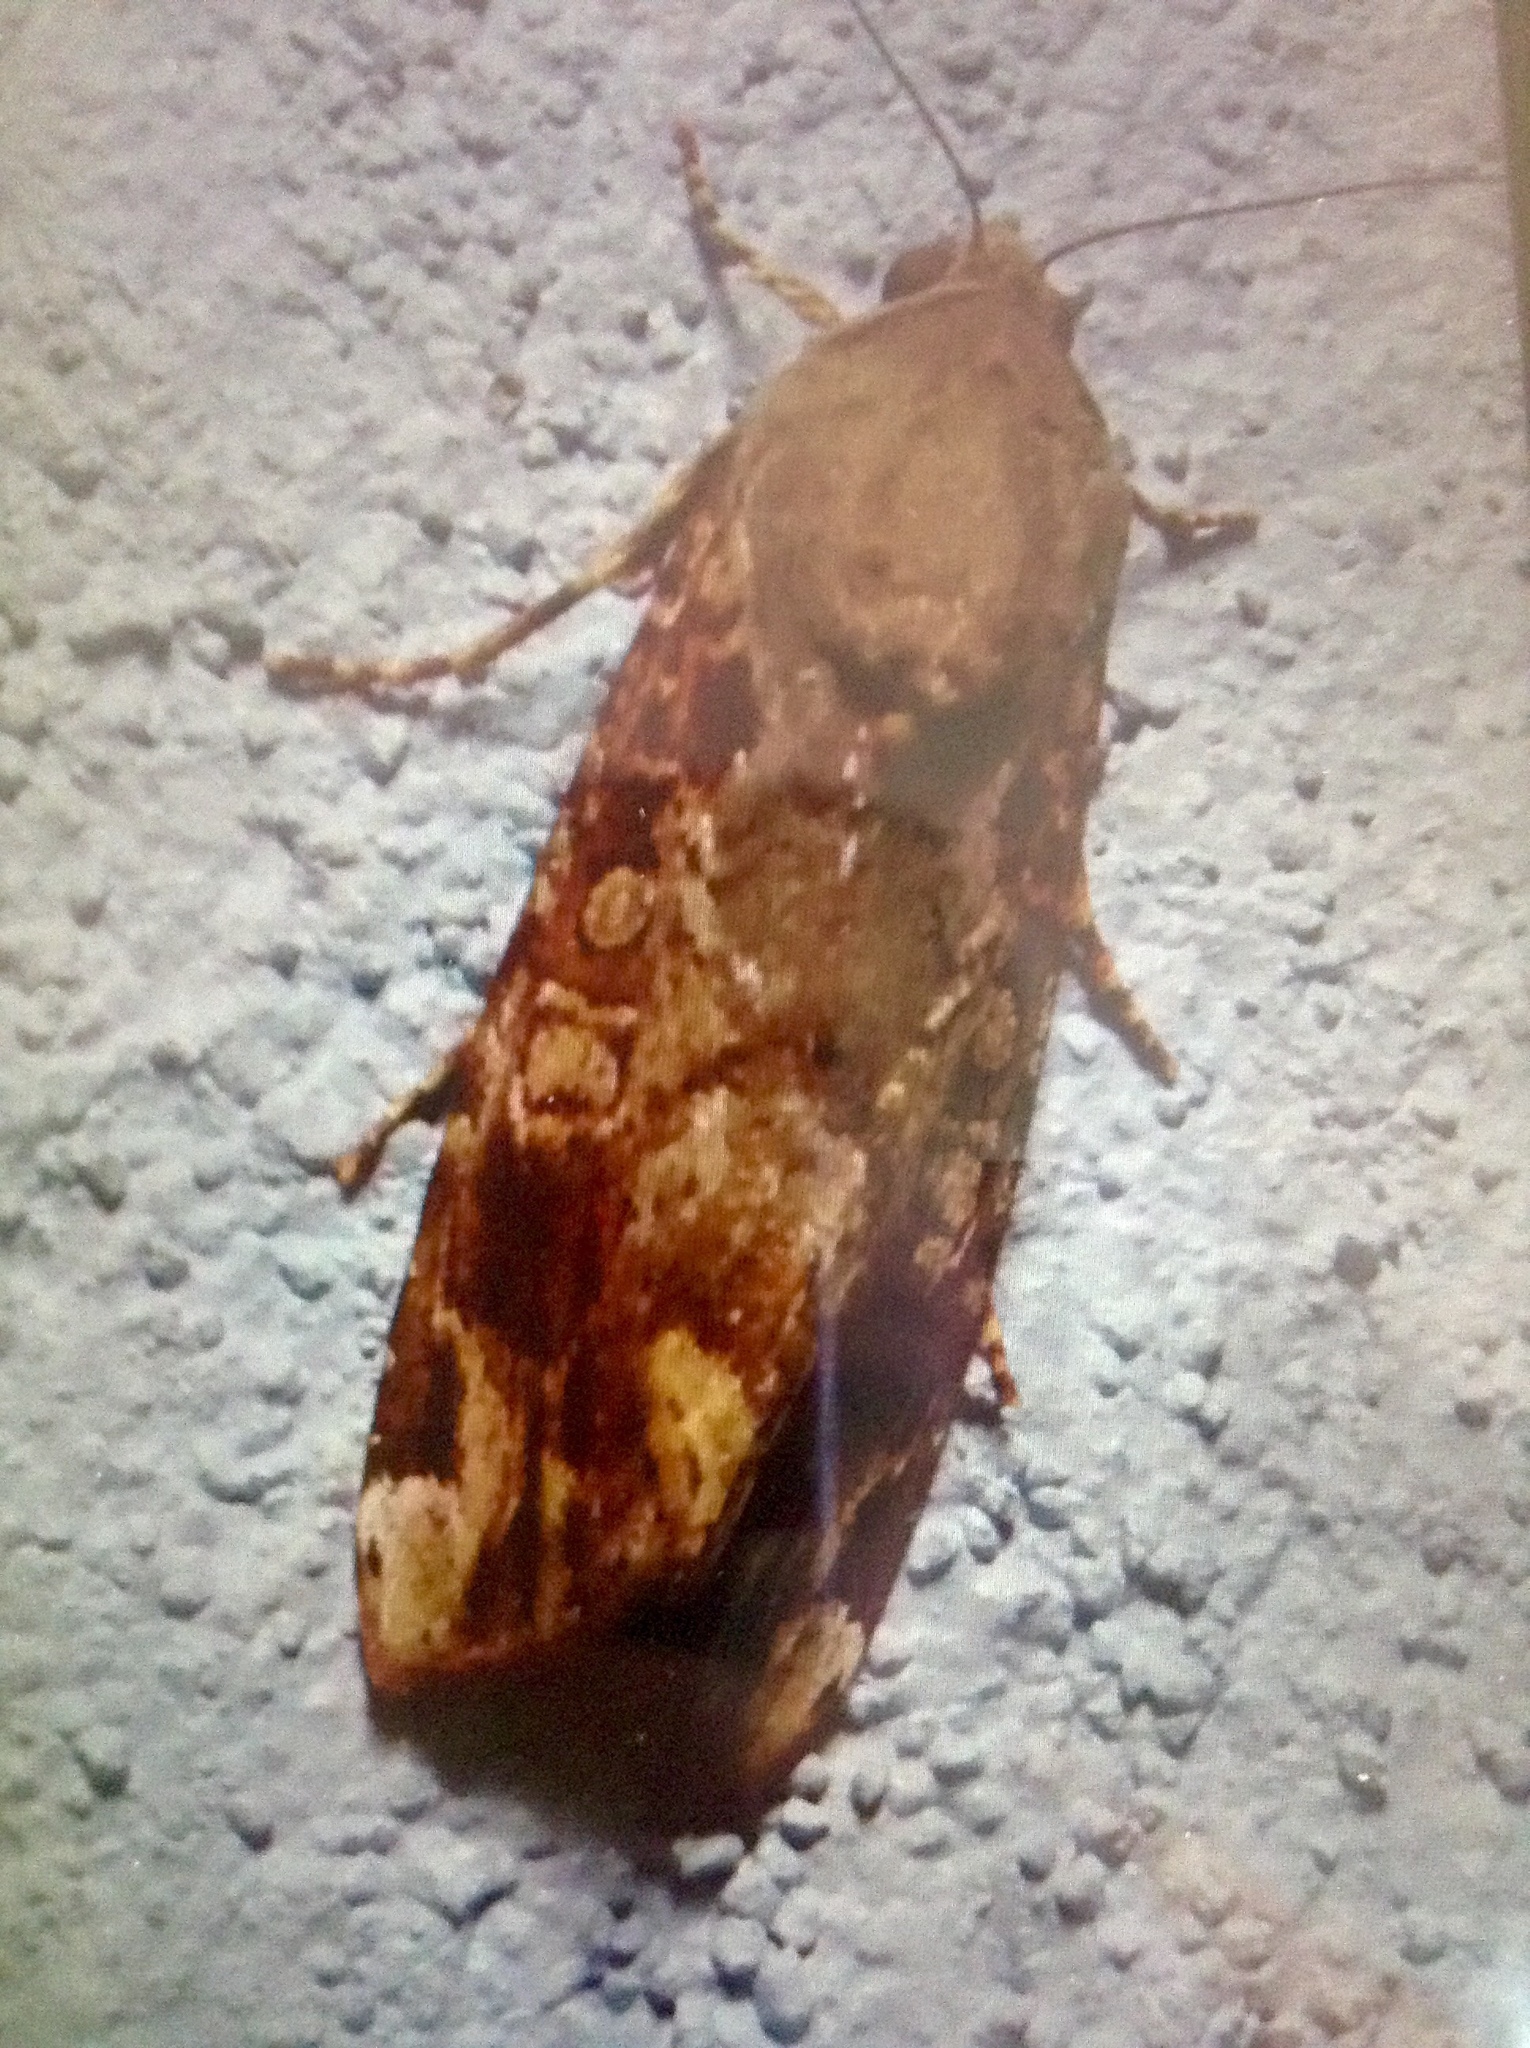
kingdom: Animalia
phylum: Arthropoda
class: Insecta
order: Lepidoptera
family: Noctuidae
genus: Magusa
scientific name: Magusa divaricata
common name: Orb narrow-winged moth
